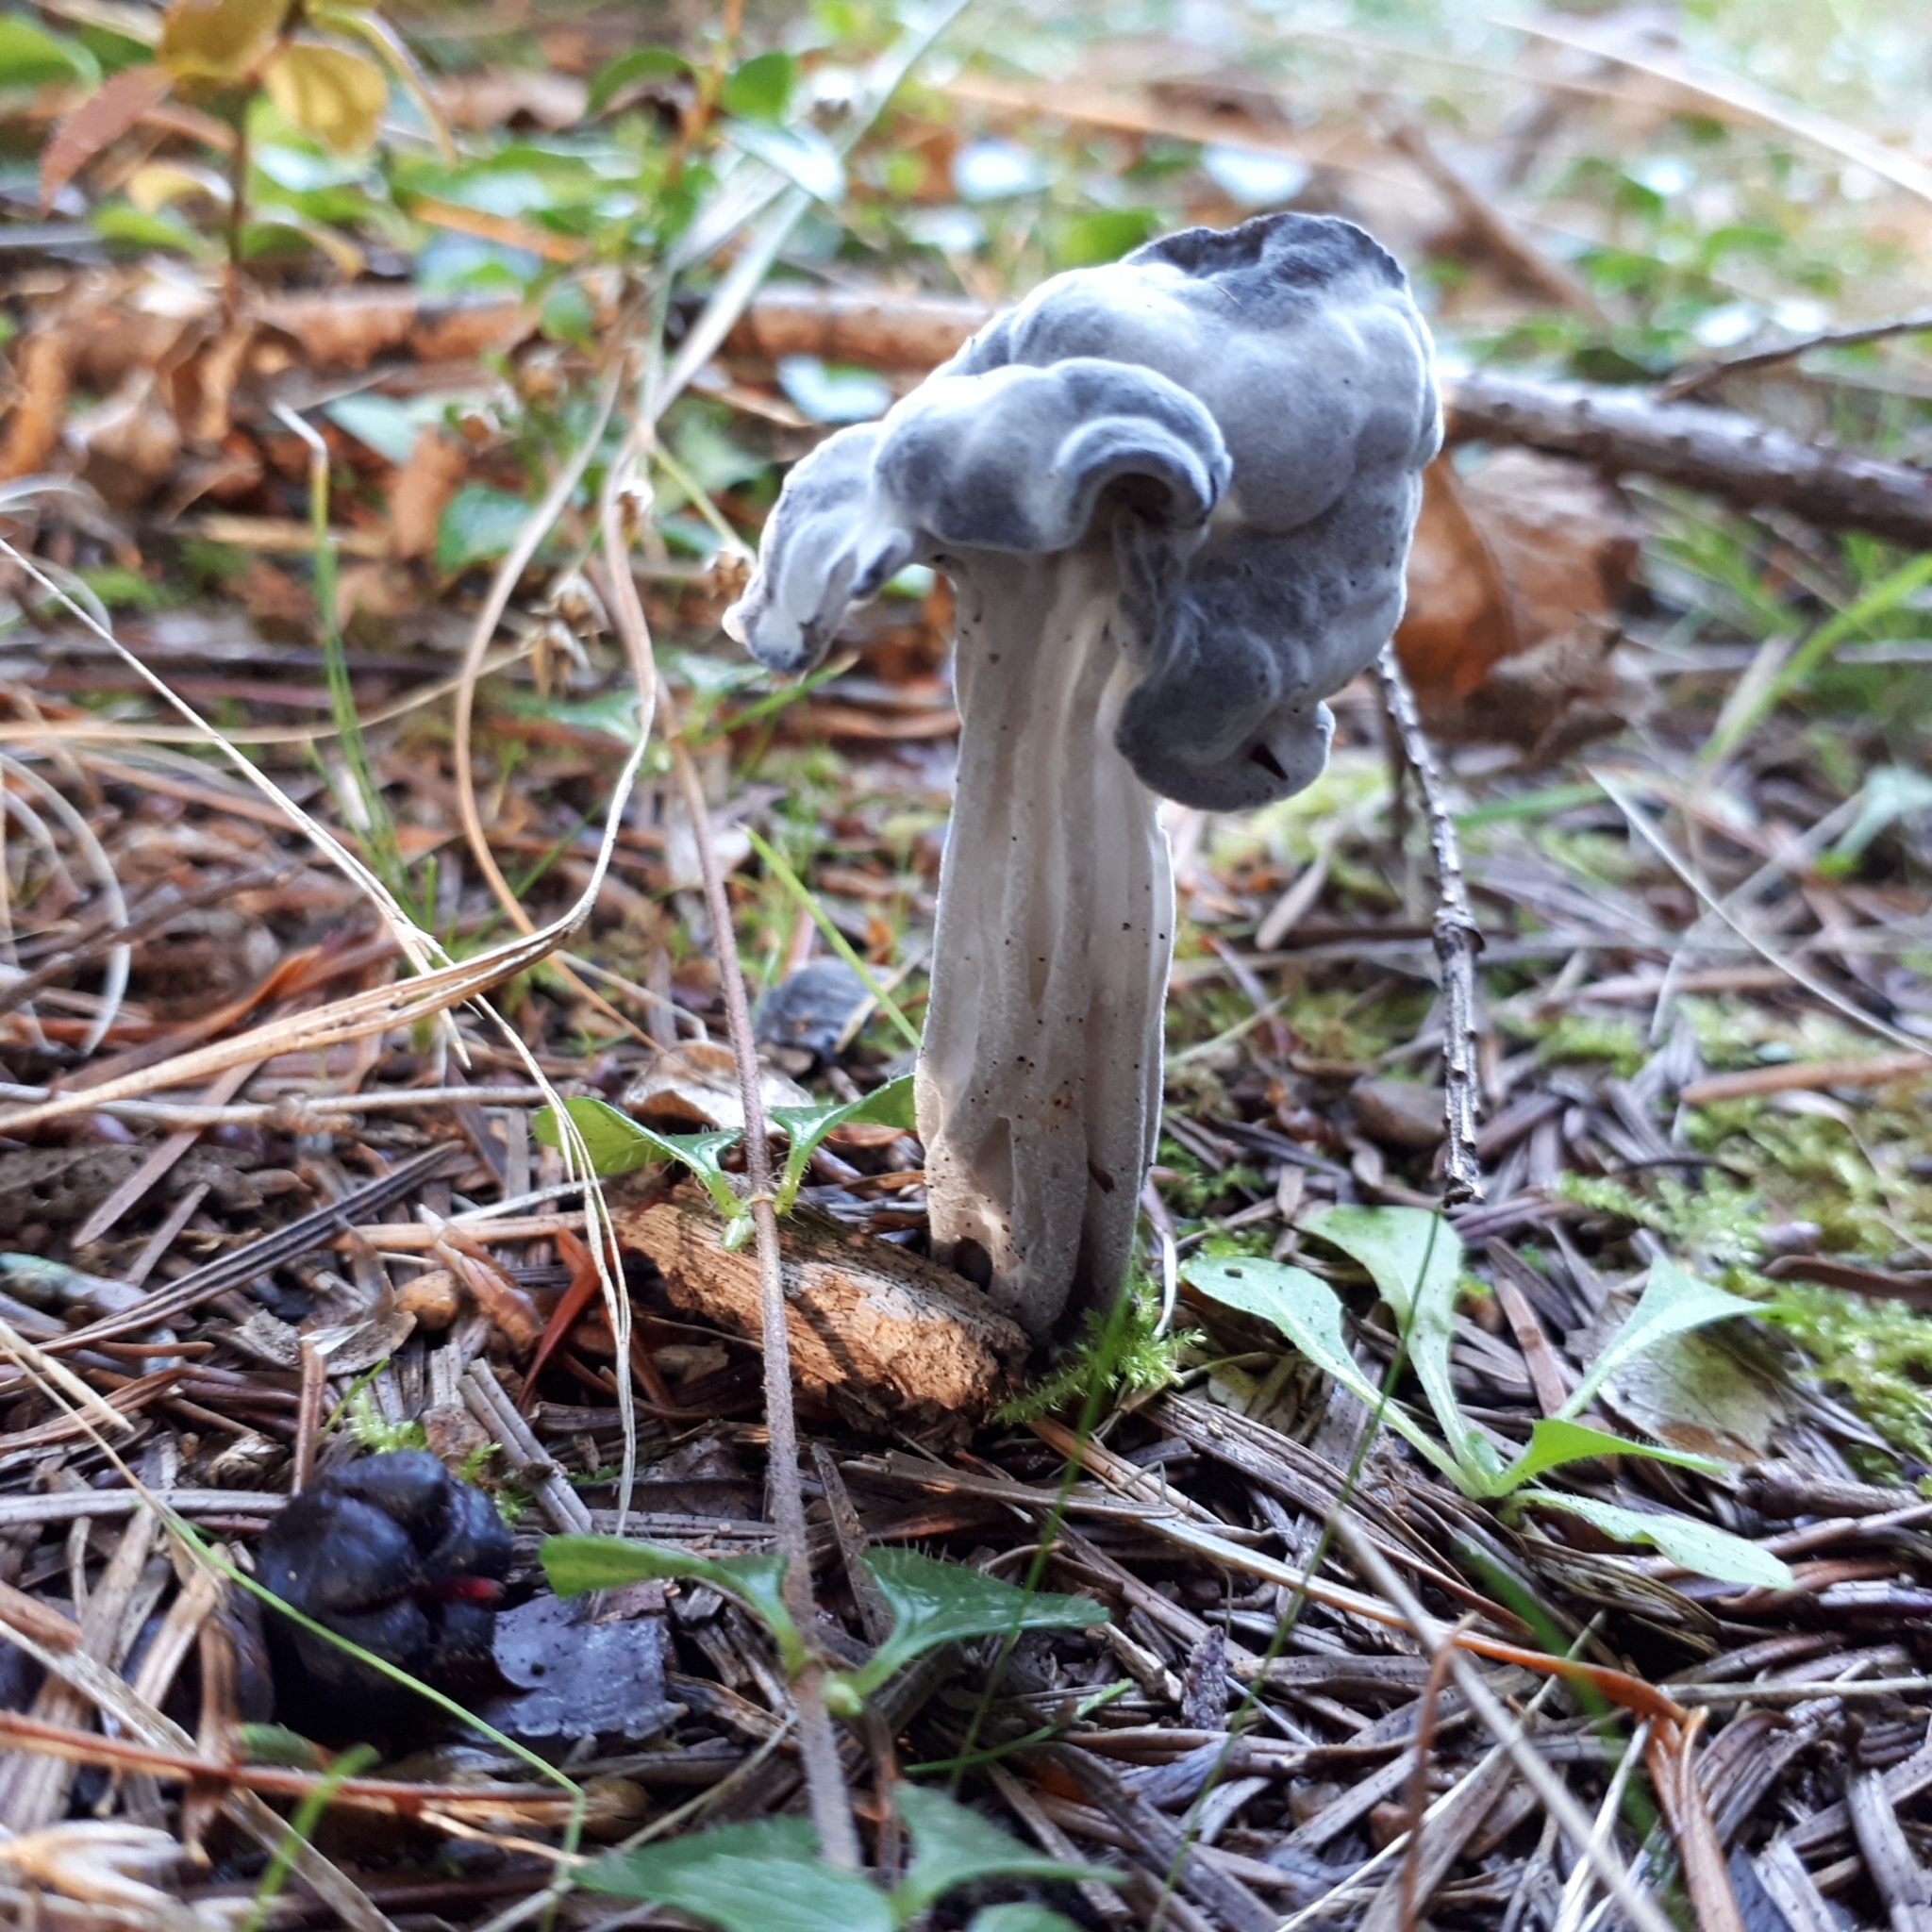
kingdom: Fungi
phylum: Ascomycota
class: Pezizomycetes
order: Pezizales
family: Helvellaceae
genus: Helvella
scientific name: Helvella vespertina
